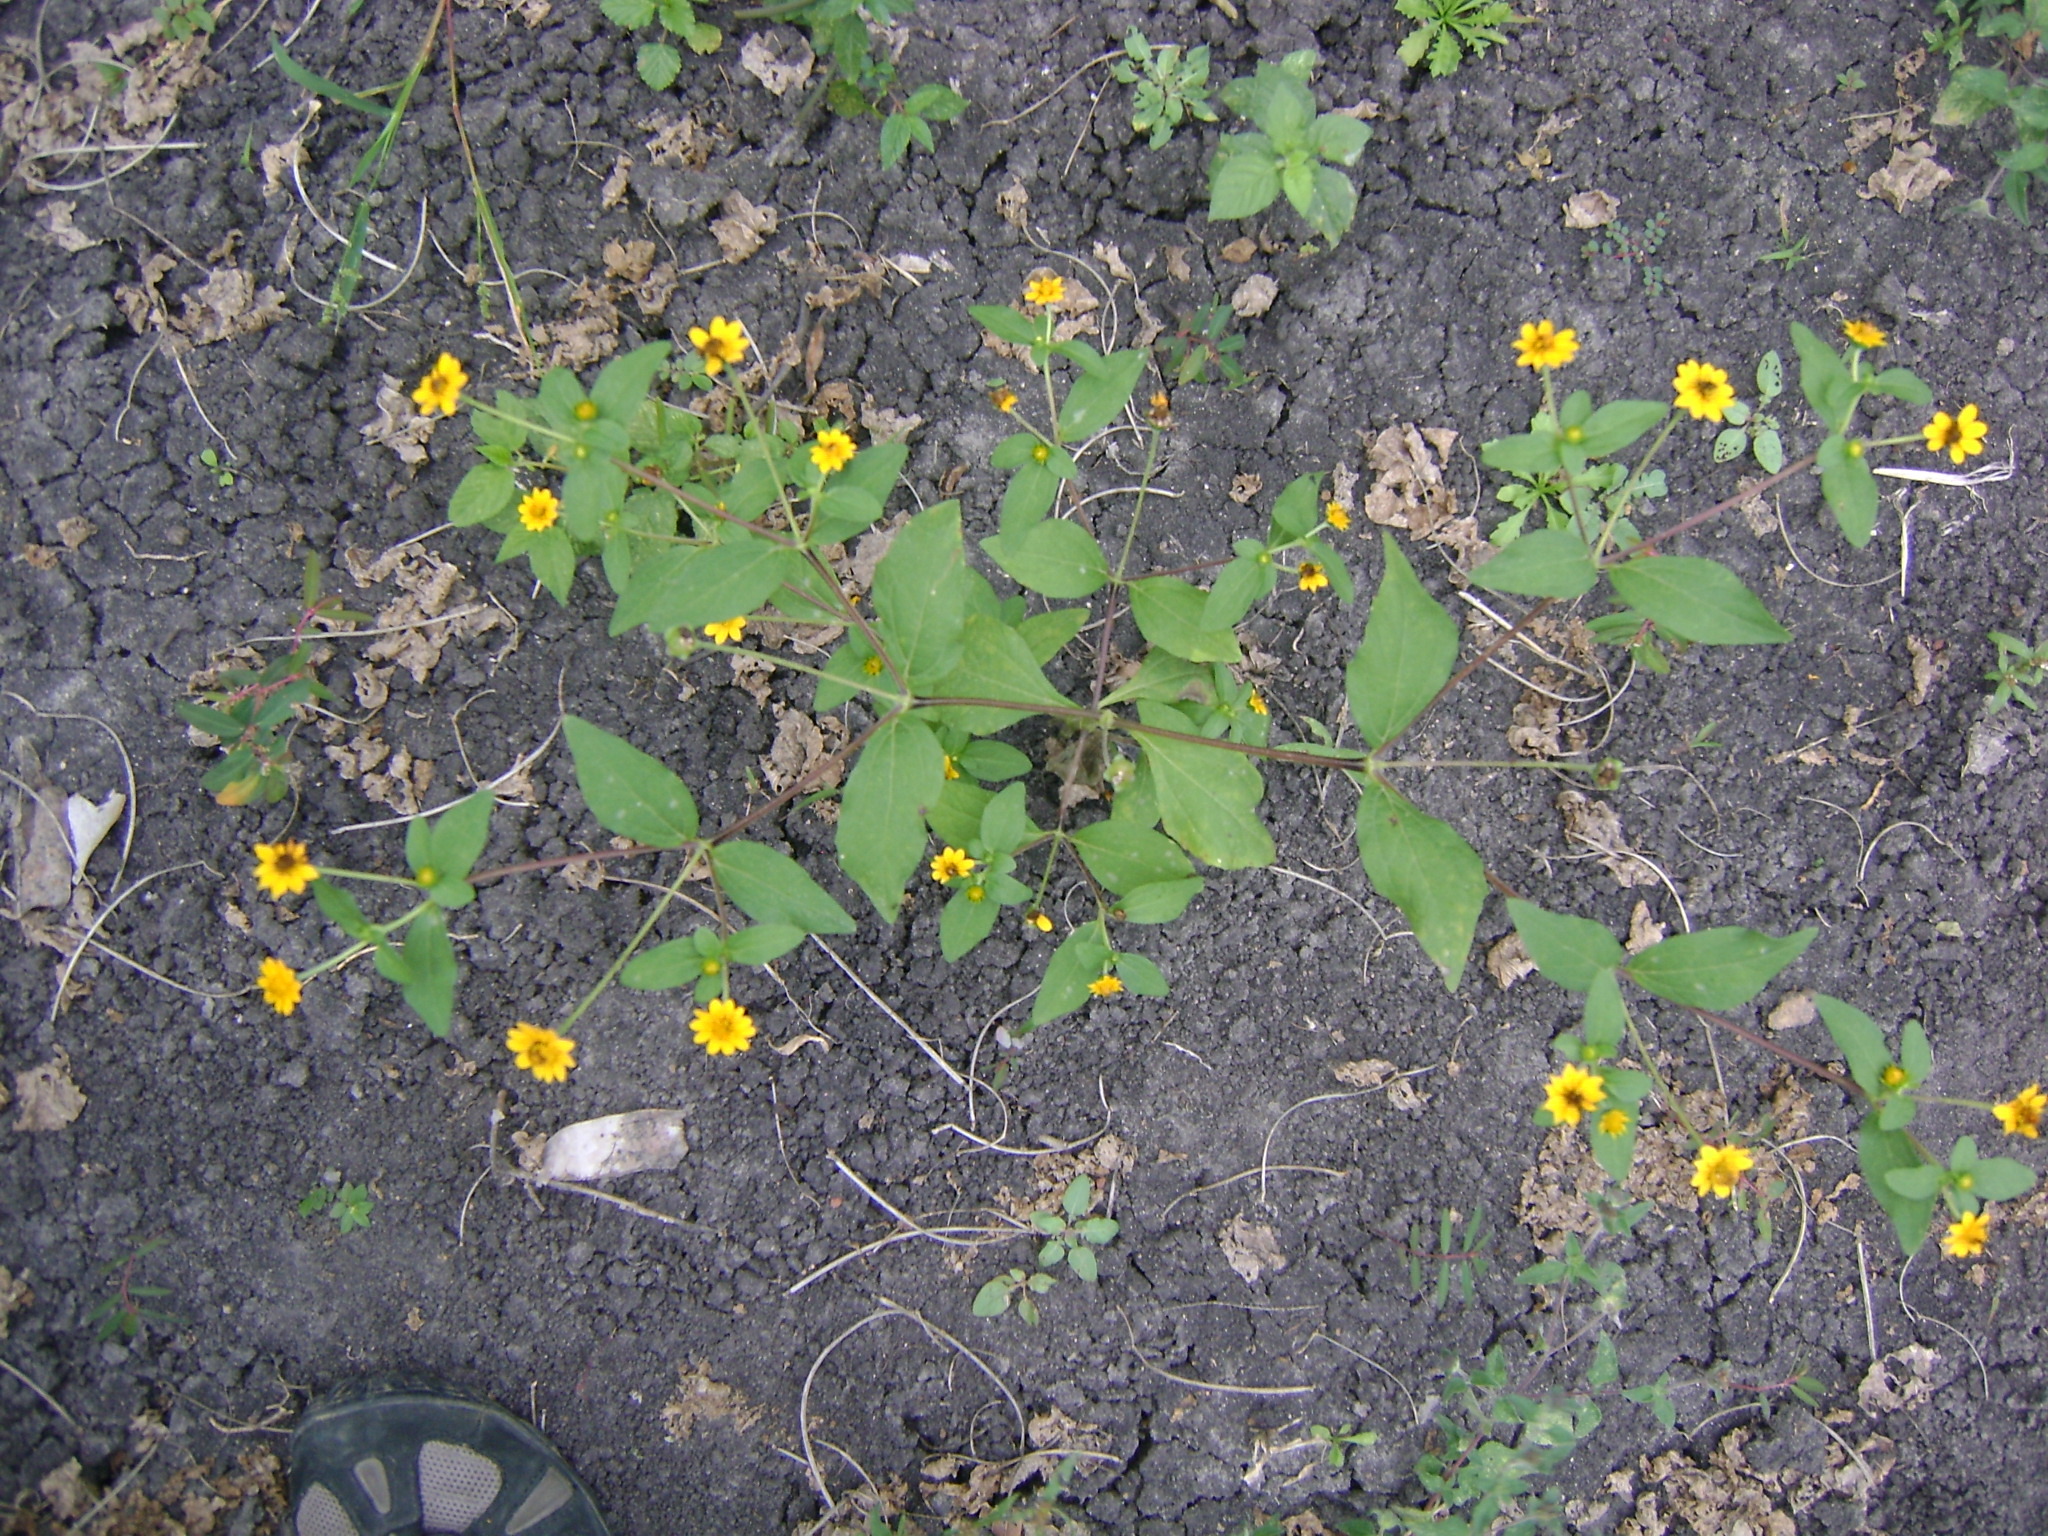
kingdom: Plantae
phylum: Tracheophyta
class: Magnoliopsida
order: Asterales
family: Asteraceae
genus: Melampodium
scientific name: Melampodium divaricatum
